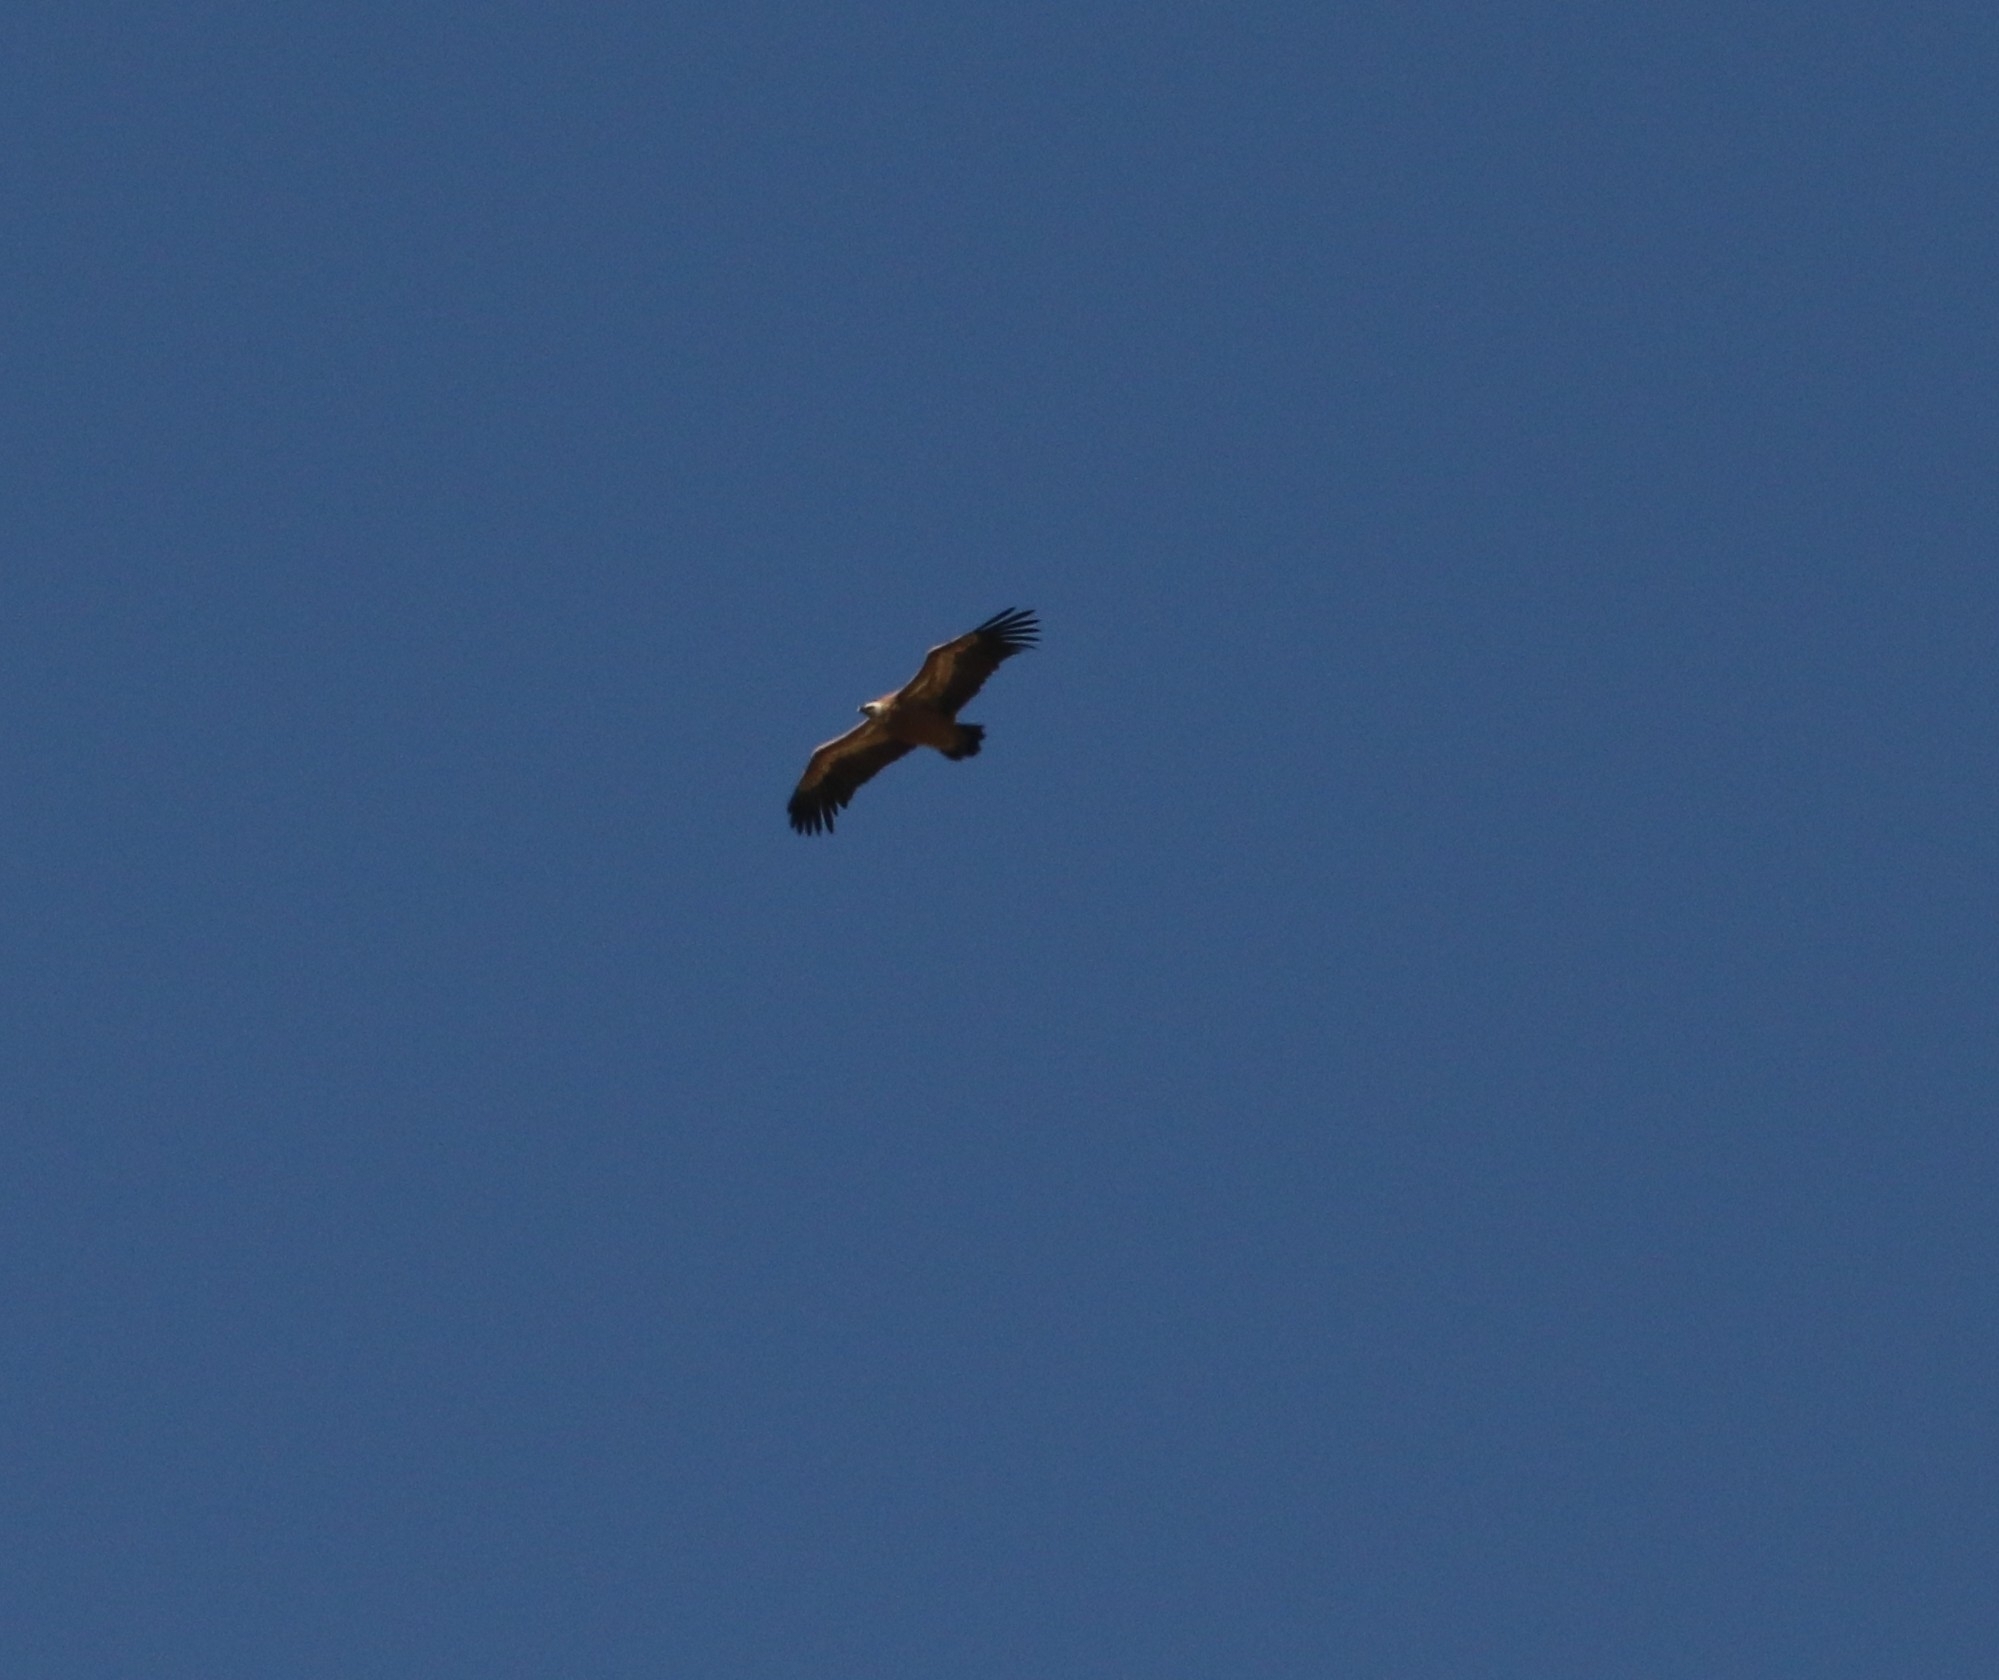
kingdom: Animalia
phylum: Chordata
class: Aves
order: Accipitriformes
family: Accipitridae
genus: Gyps
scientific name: Gyps fulvus
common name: Griffon vulture
